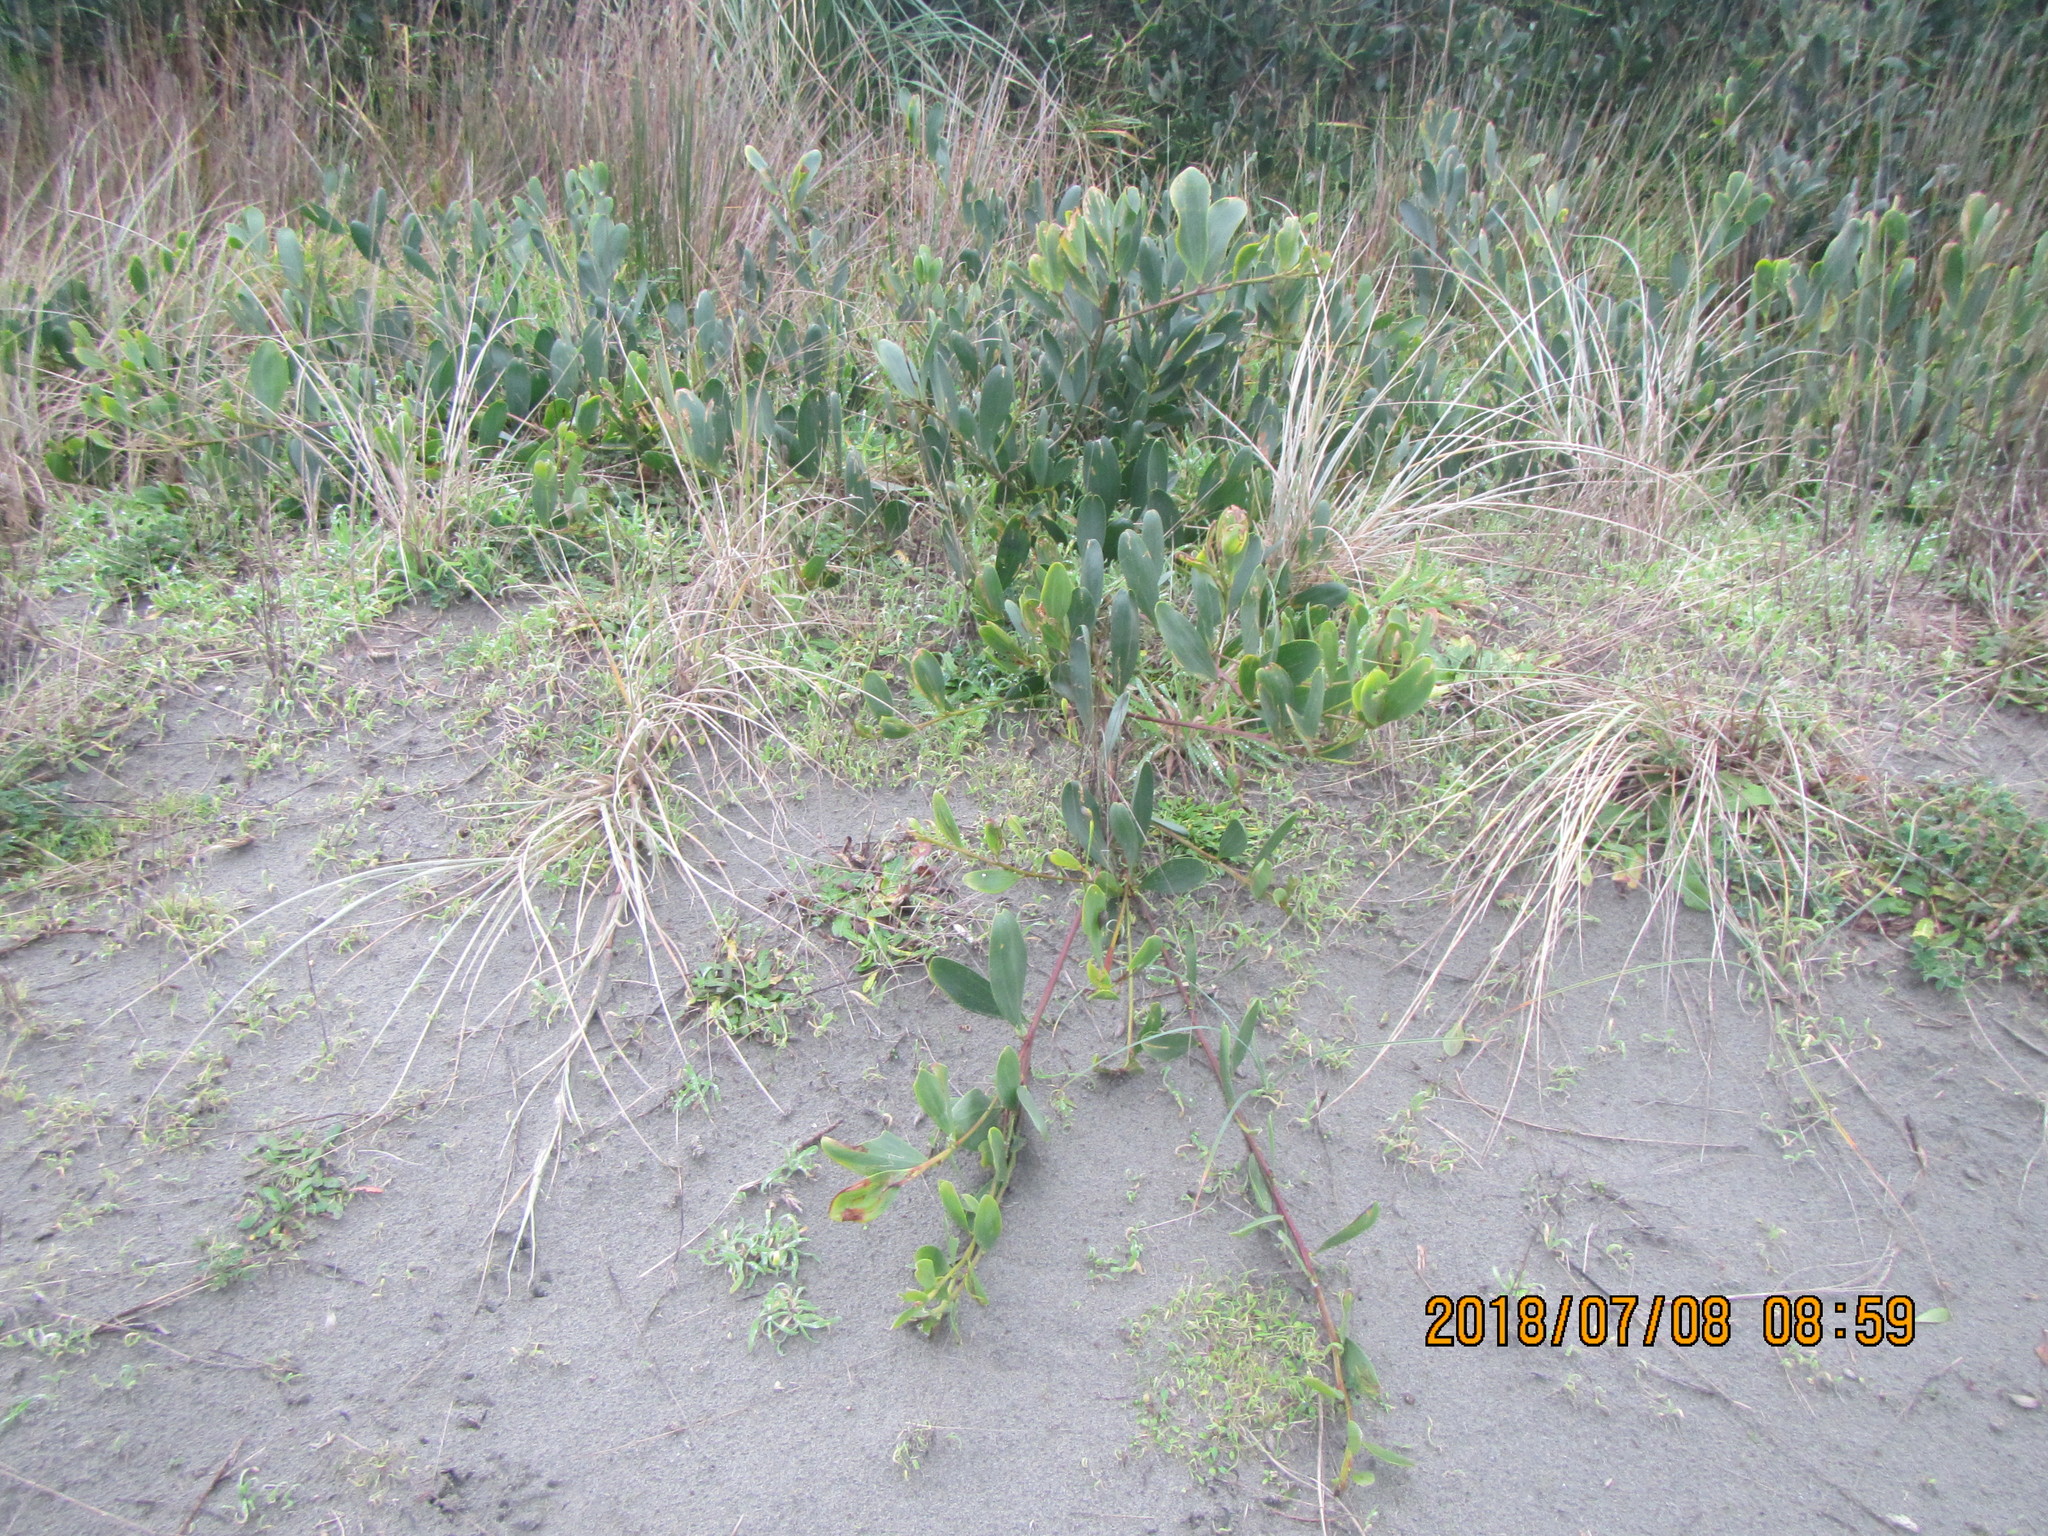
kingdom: Plantae
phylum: Tracheophyta
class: Magnoliopsida
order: Fabales
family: Fabaceae
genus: Acacia
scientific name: Acacia longifolia
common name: Sydney golden wattle
